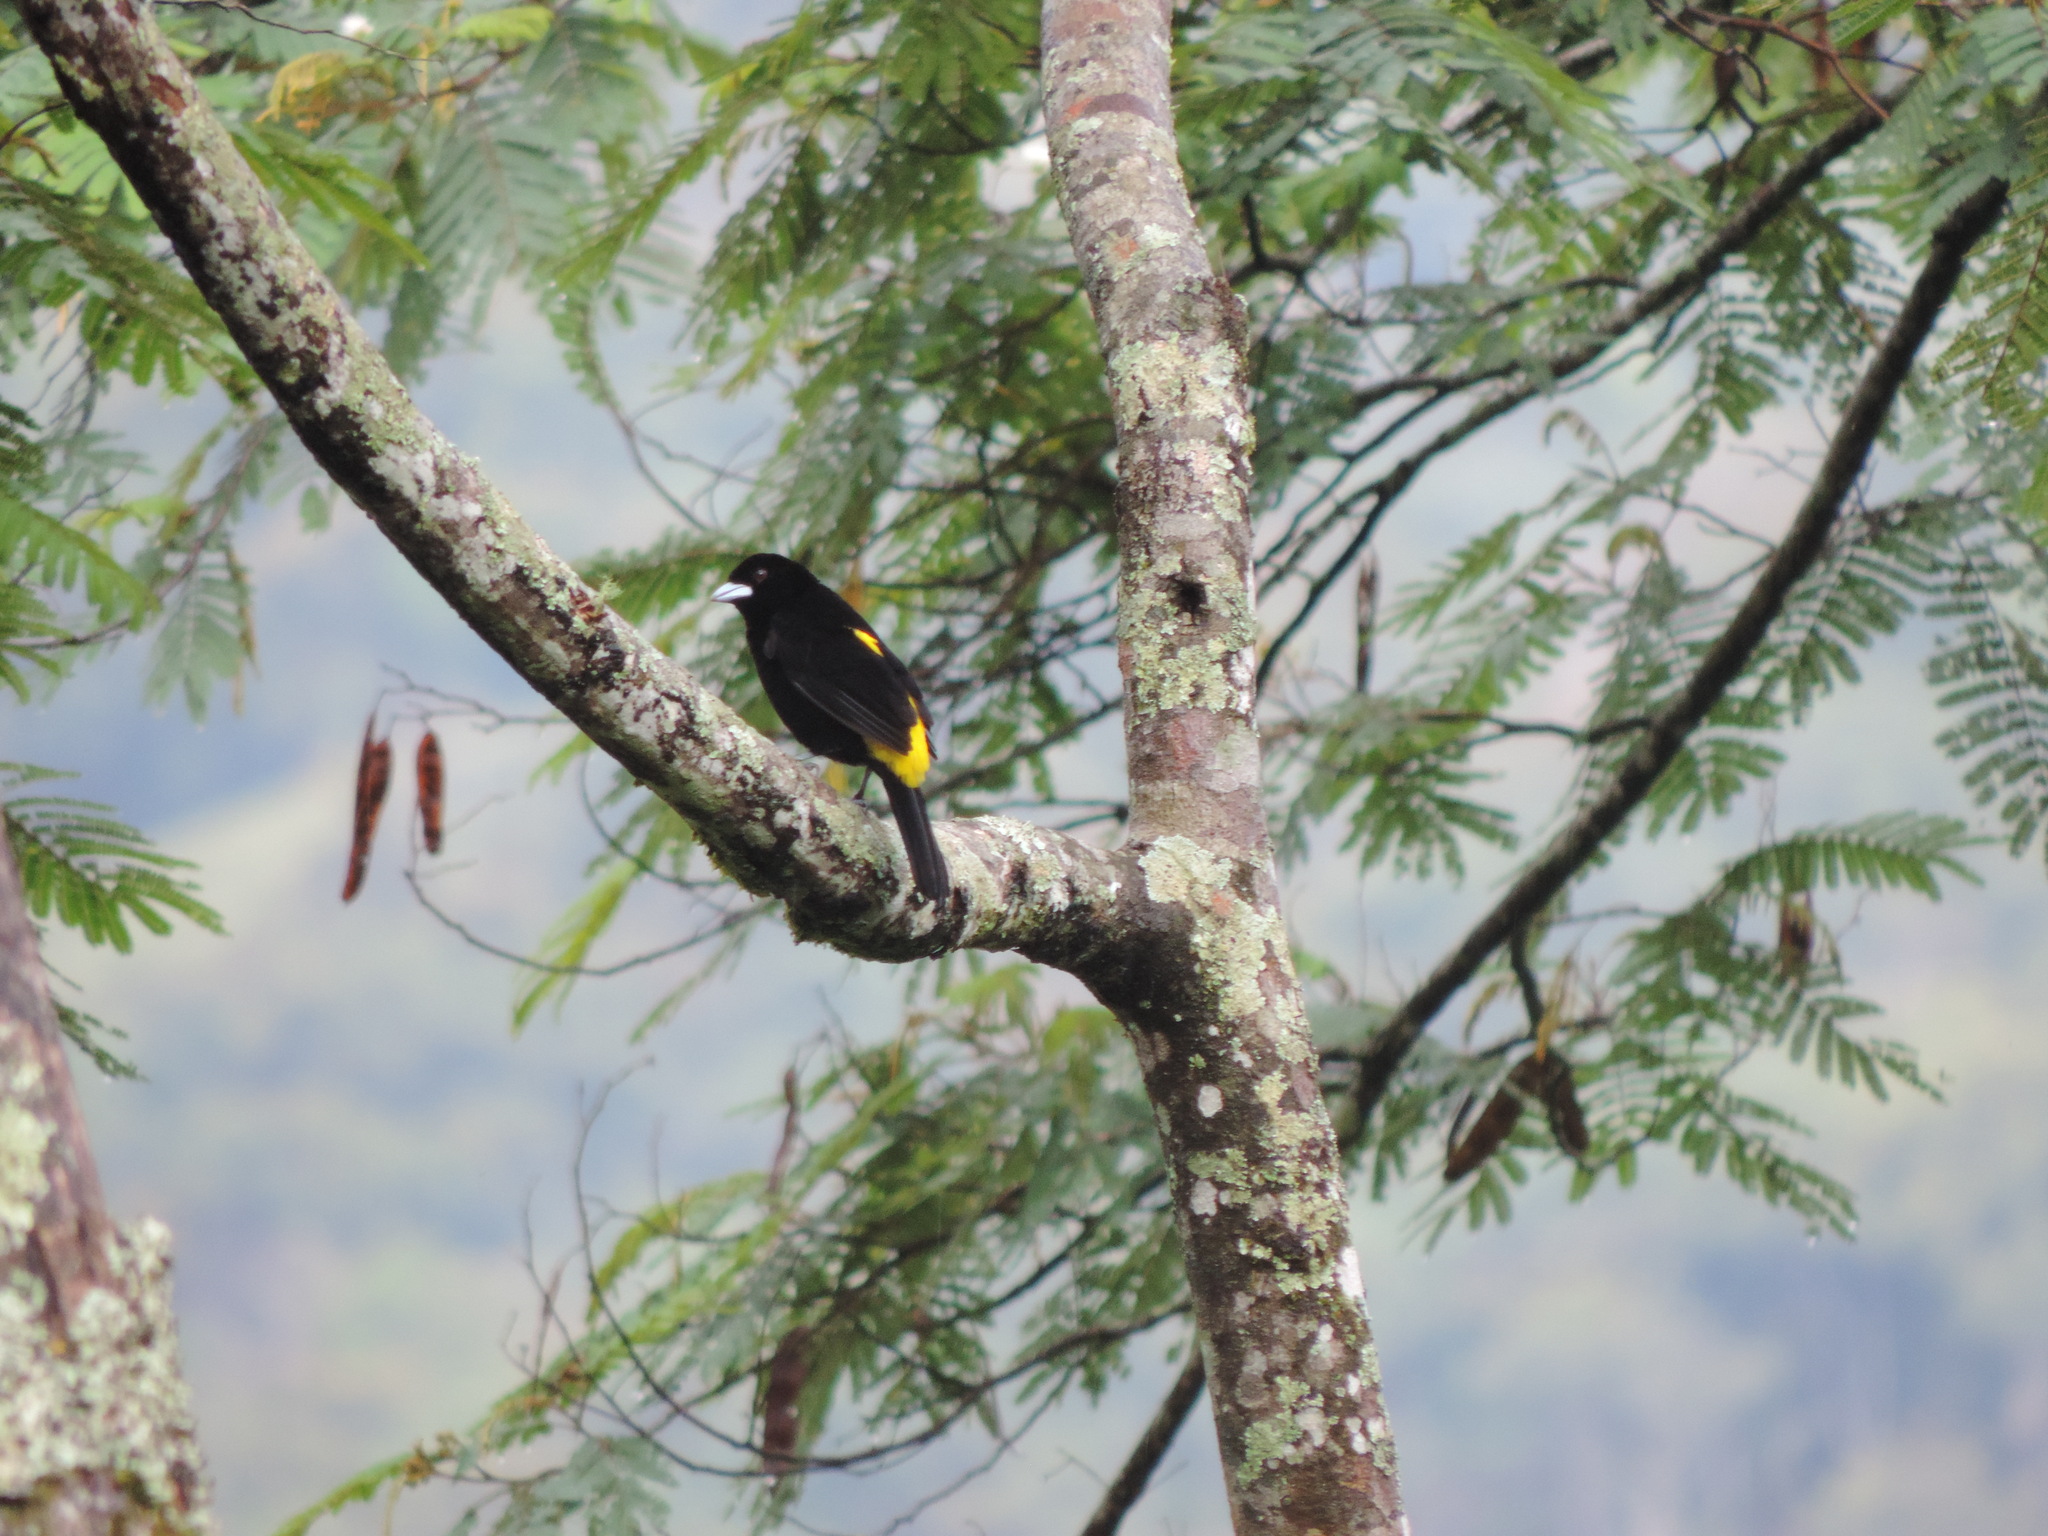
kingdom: Animalia
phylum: Chordata
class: Aves
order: Passeriformes
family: Thraupidae
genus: Ramphocelus
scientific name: Ramphocelus flammigerus
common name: Flame-rumped tanager
